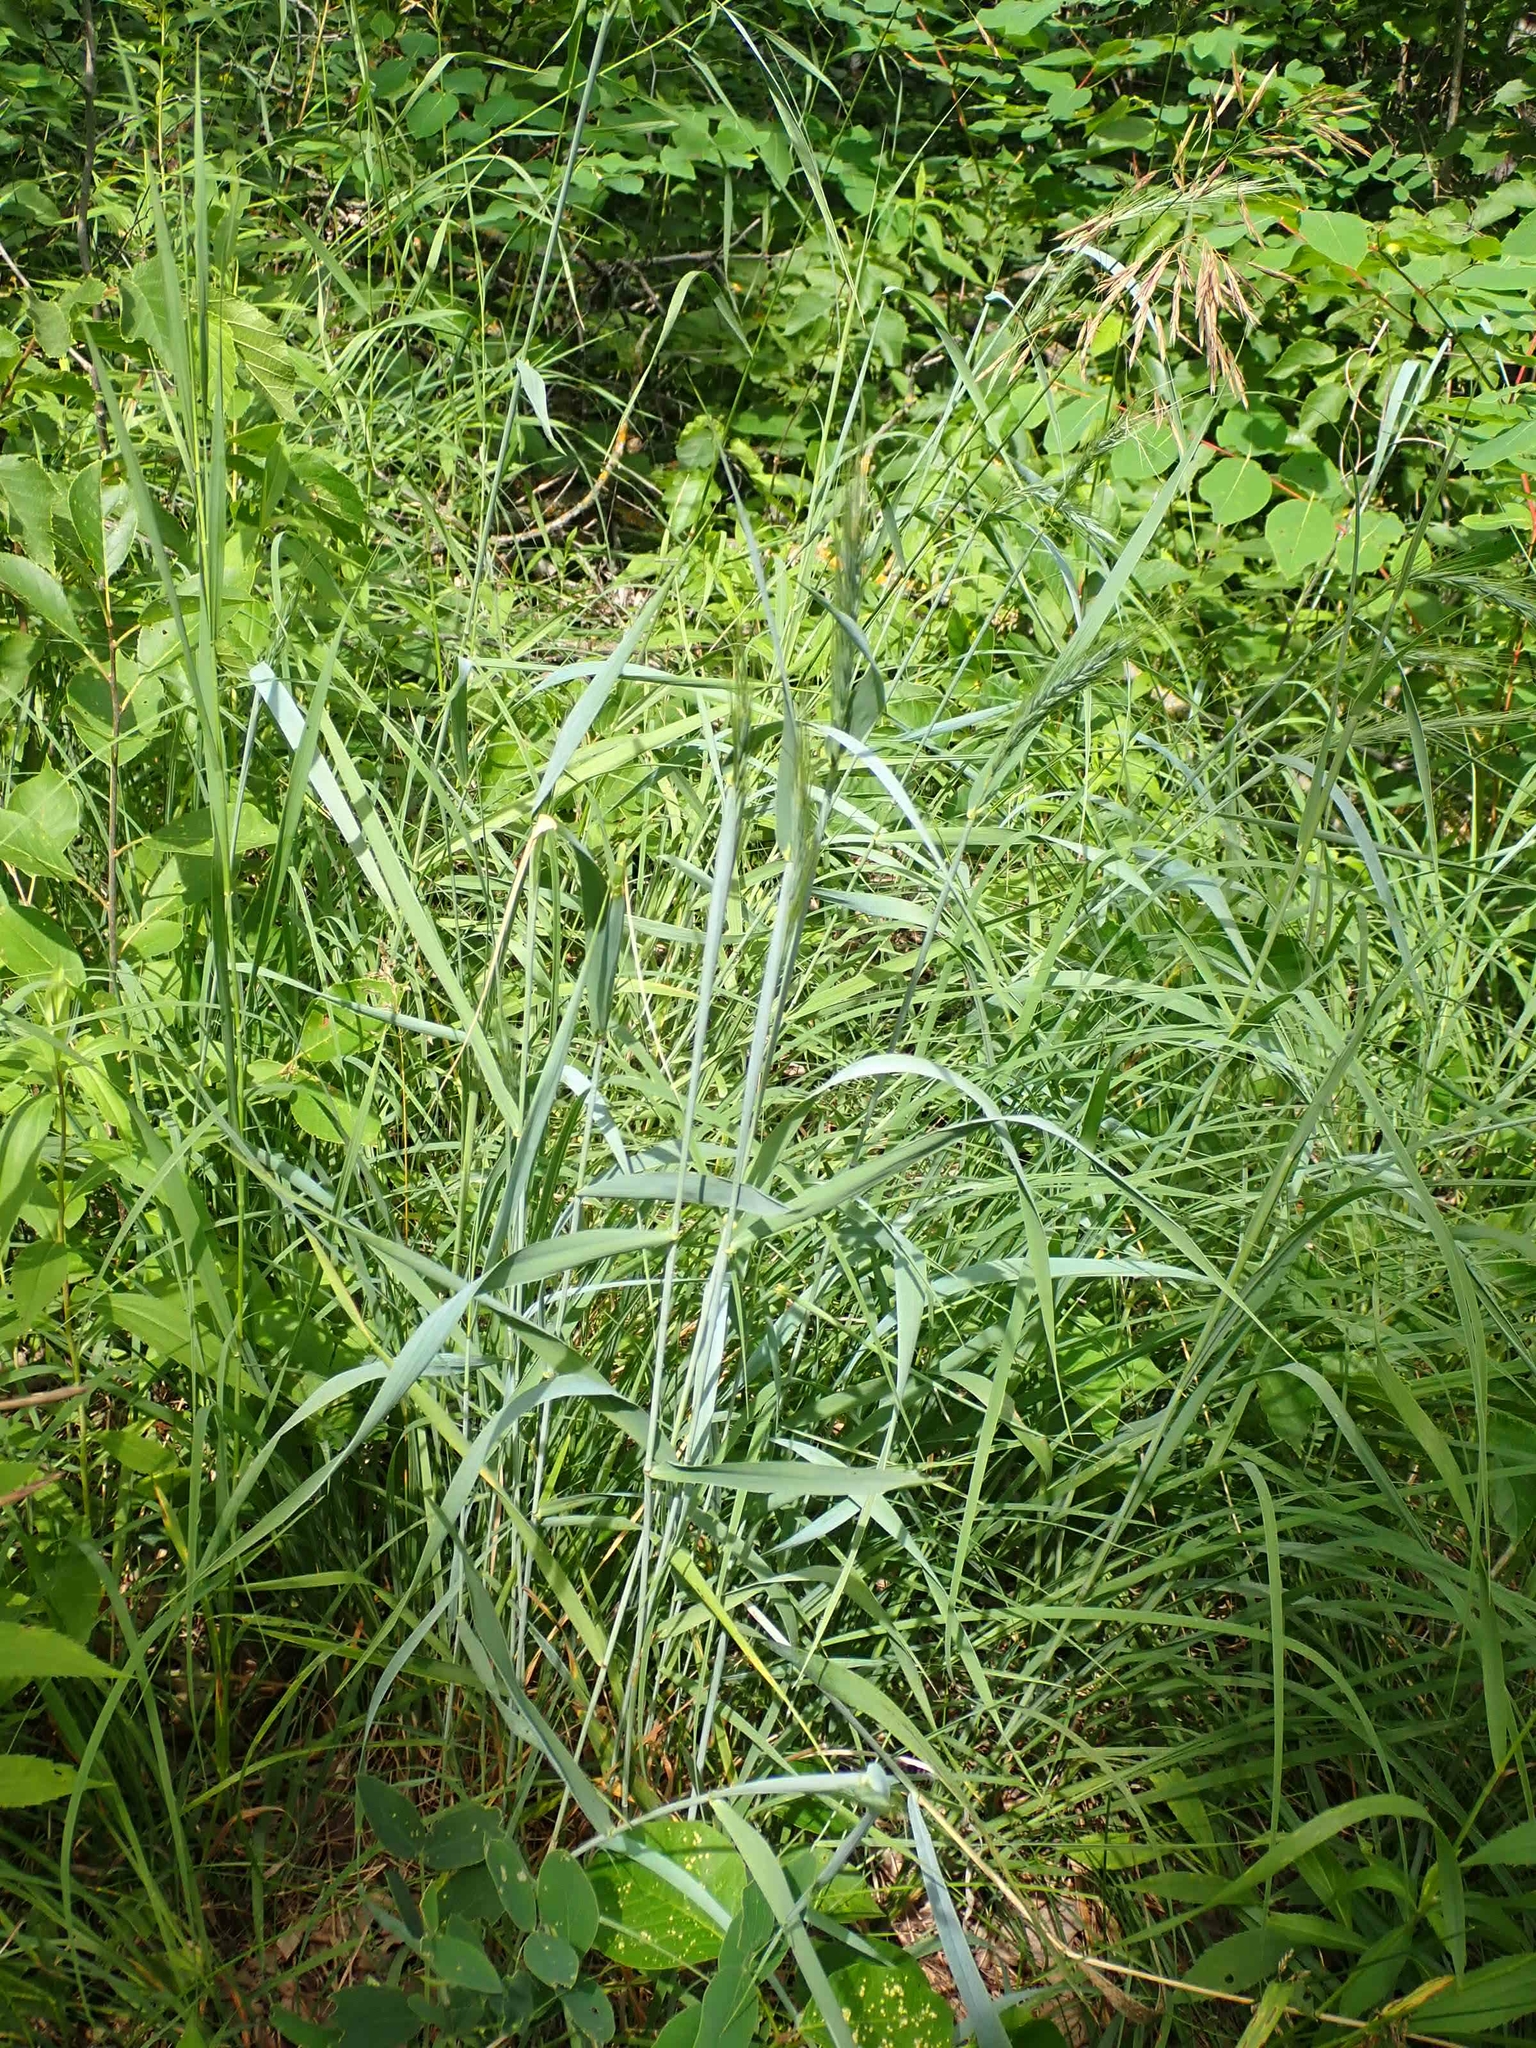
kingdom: Plantae
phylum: Tracheophyta
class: Liliopsida
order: Poales
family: Poaceae
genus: Elymus
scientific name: Elymus canadensis
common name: Canada wild rye
